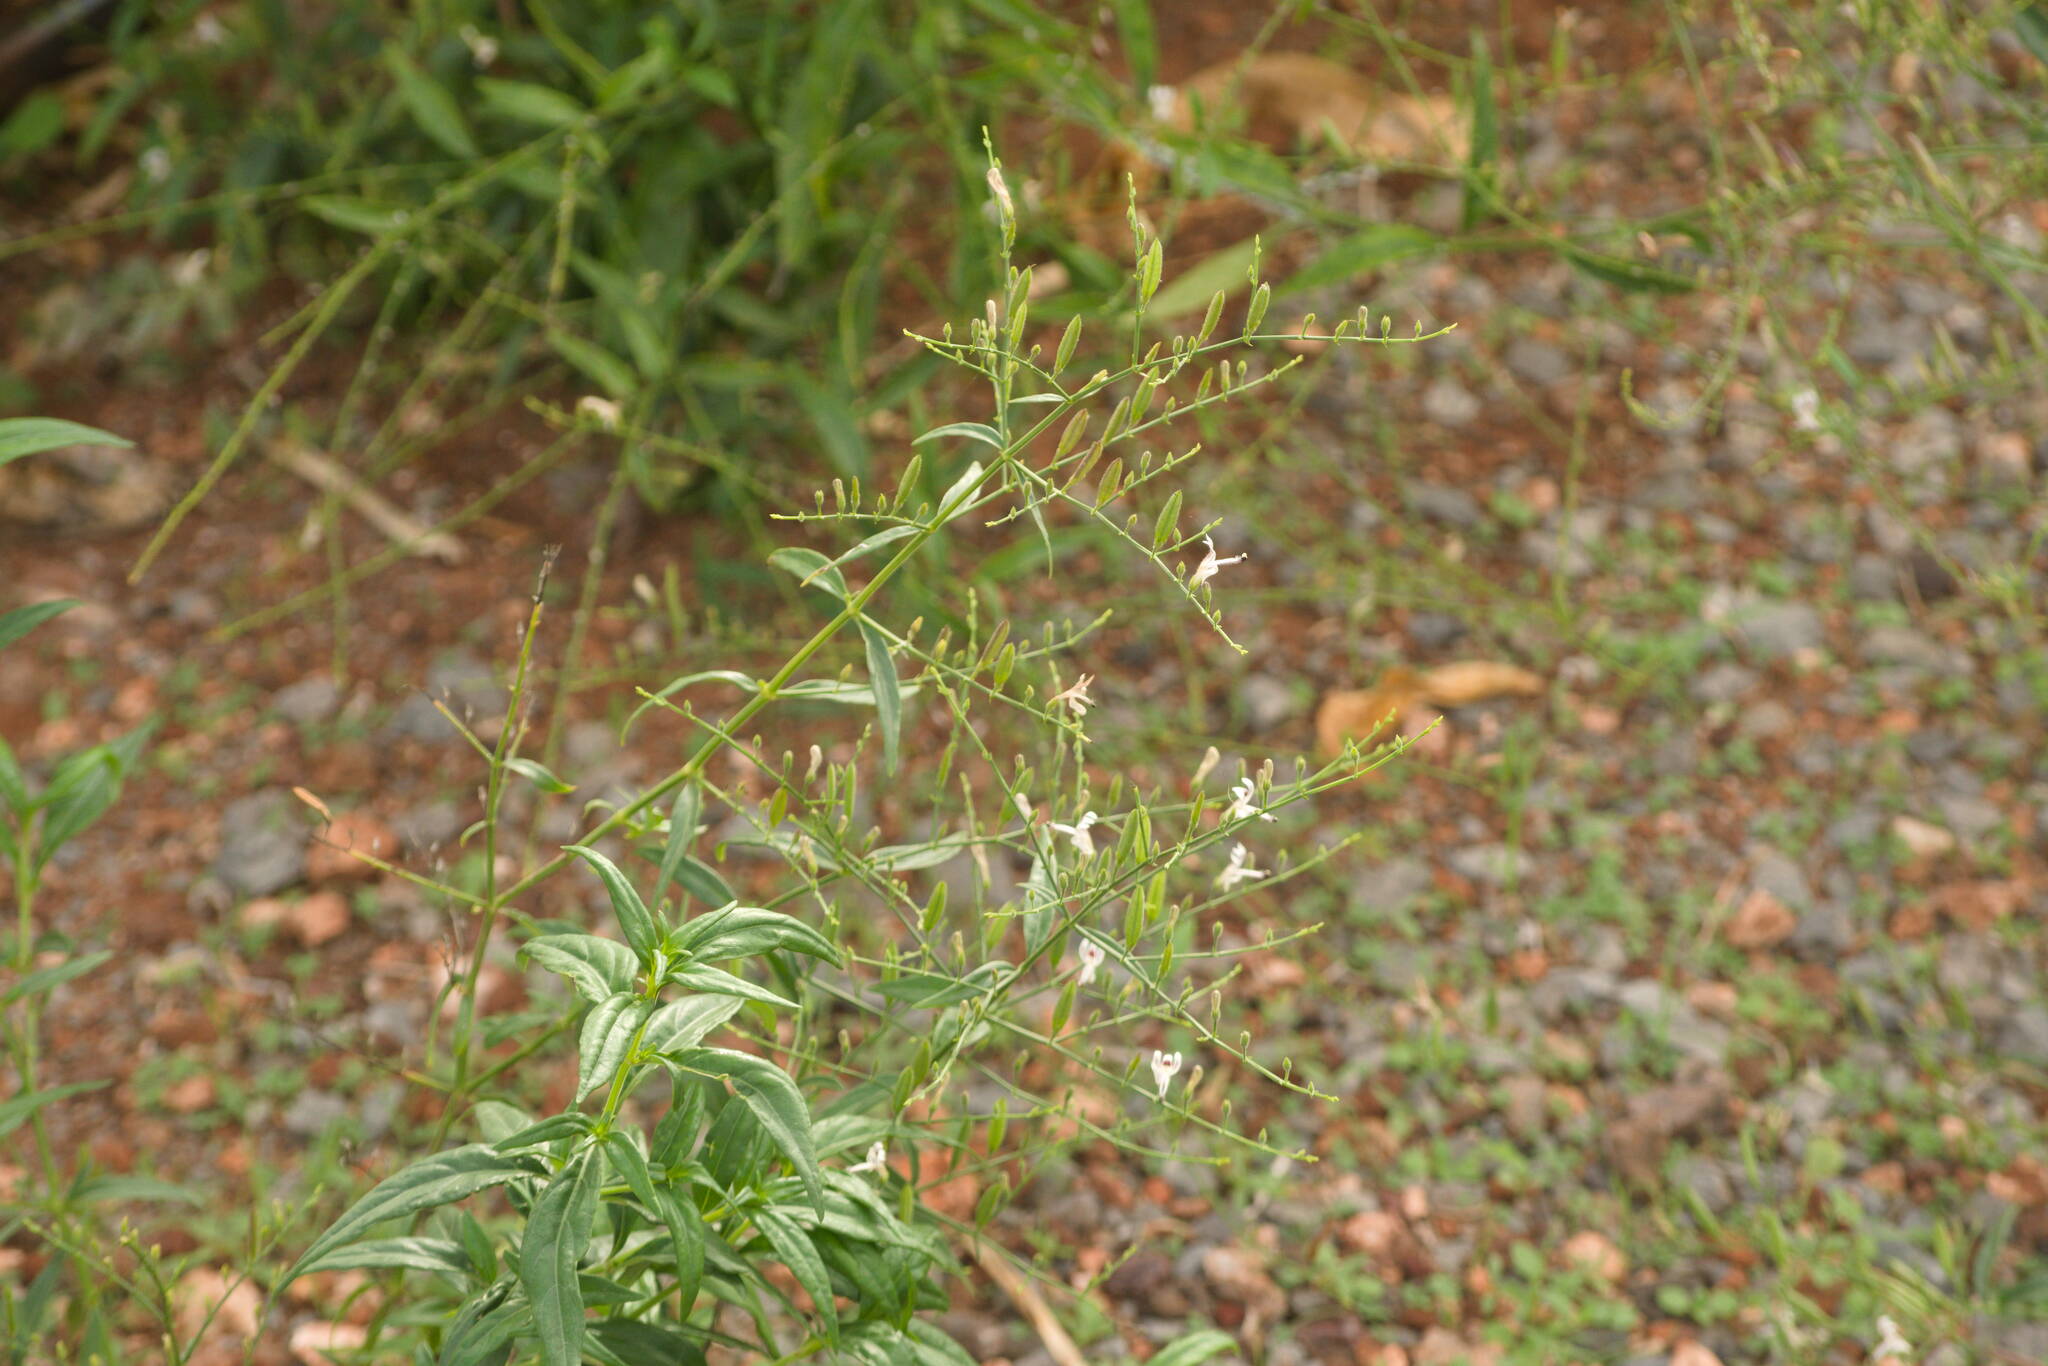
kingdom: Plantae
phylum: Tracheophyta
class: Magnoliopsida
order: Lamiales
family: Acanthaceae
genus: Andrographis
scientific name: Andrographis paniculata
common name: Green chireta
